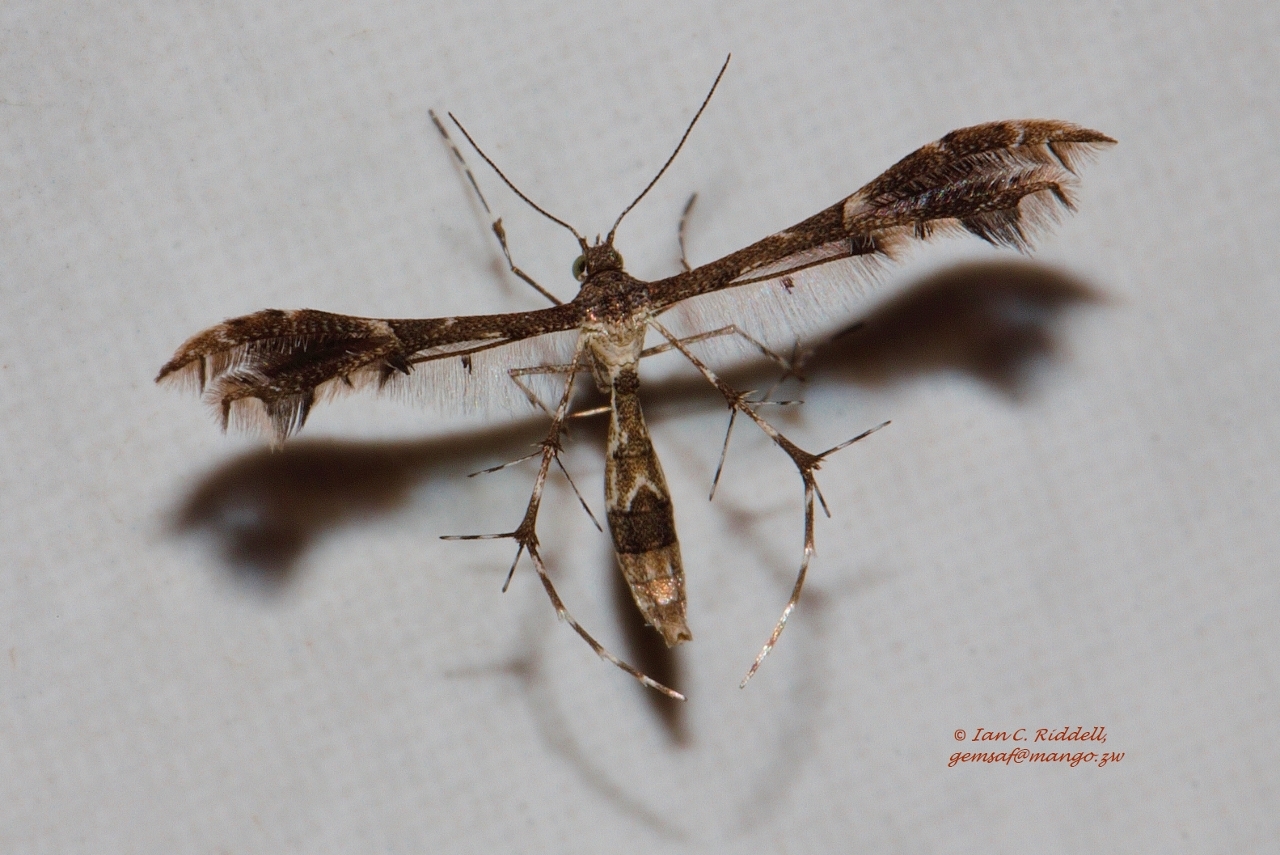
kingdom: Animalia
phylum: Arthropoda
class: Insecta
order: Lepidoptera
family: Pterophoridae
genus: Megalorhipida
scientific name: Megalorhipida tessmanni
